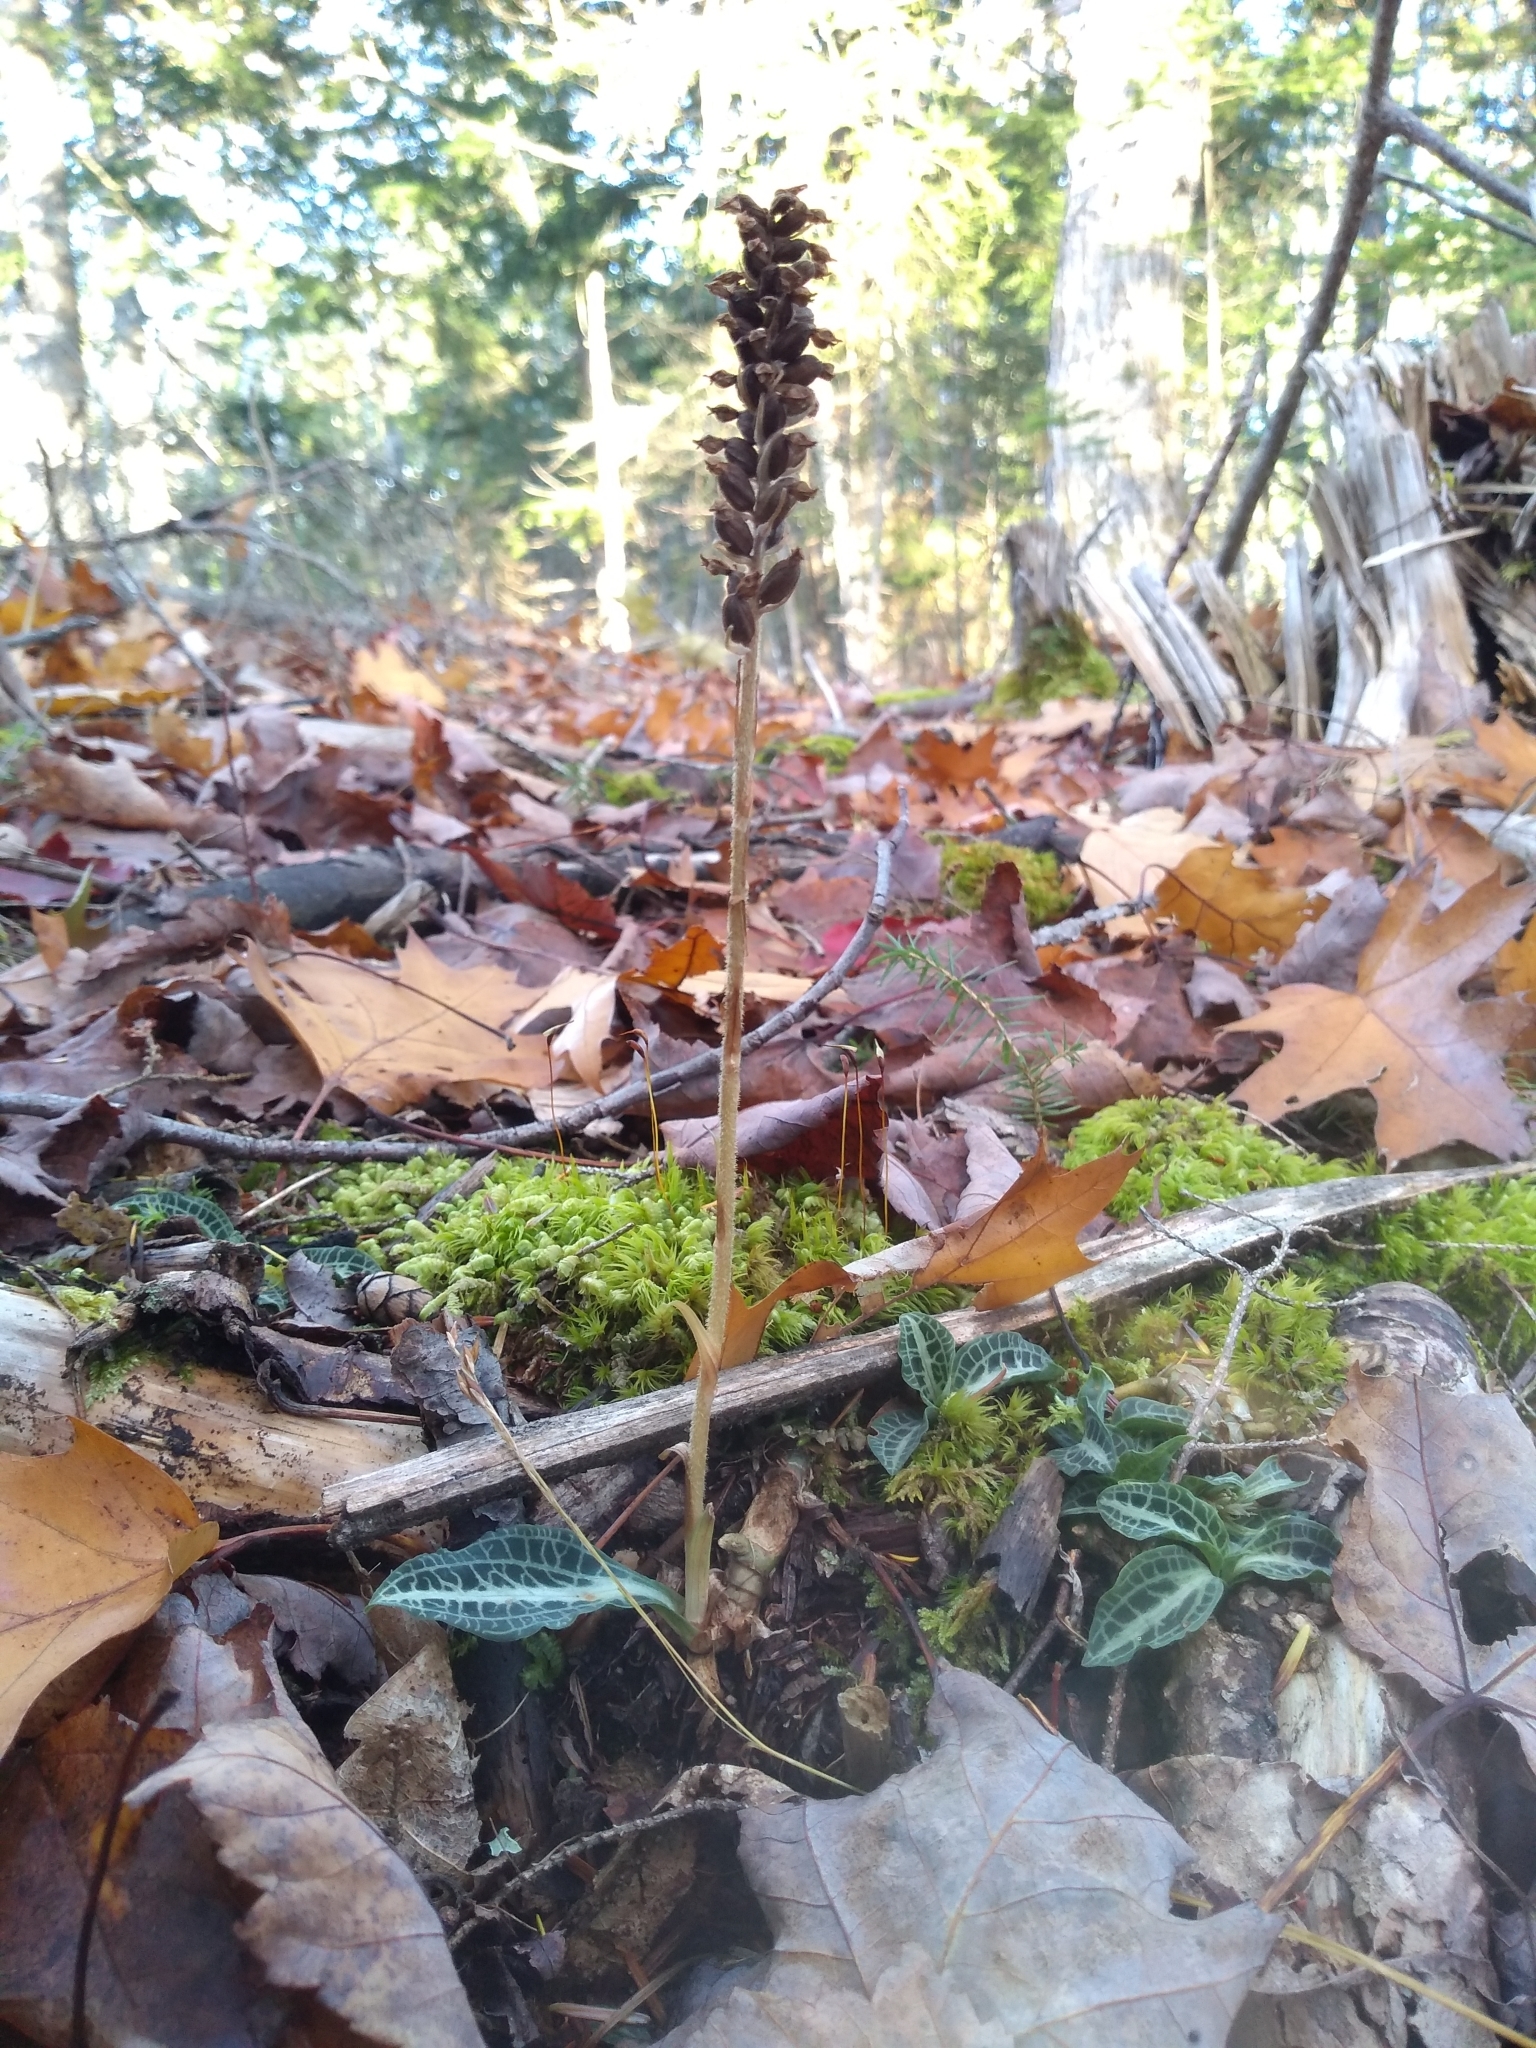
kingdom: Plantae
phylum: Tracheophyta
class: Liliopsida
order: Asparagales
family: Orchidaceae
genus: Goodyera
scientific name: Goodyera pubescens
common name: Downy rattlesnake-plantain
